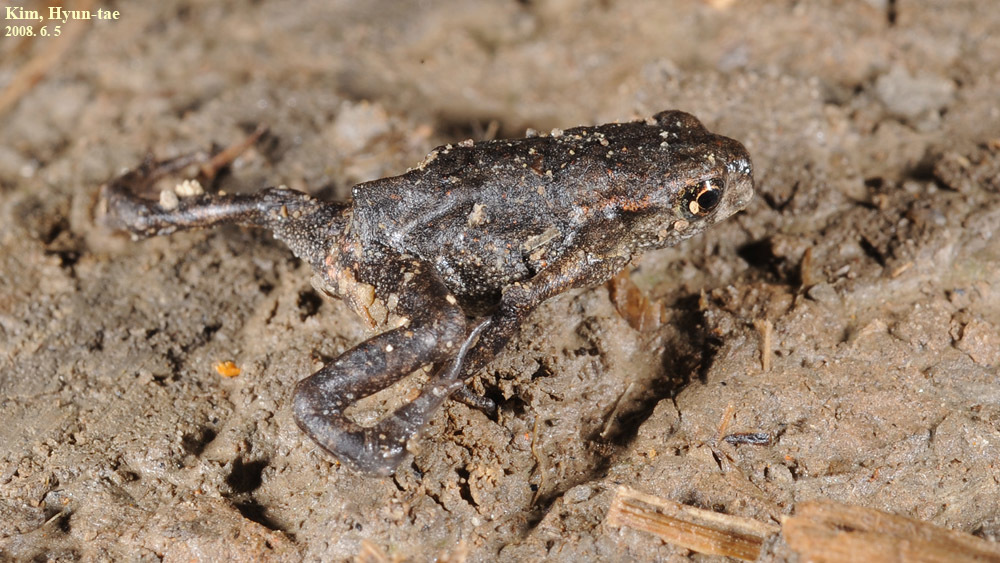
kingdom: Animalia
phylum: Chordata
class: Amphibia
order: Anura
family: Bufonidae
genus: Bufo
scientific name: Bufo gargarizans
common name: Asiatic toad
